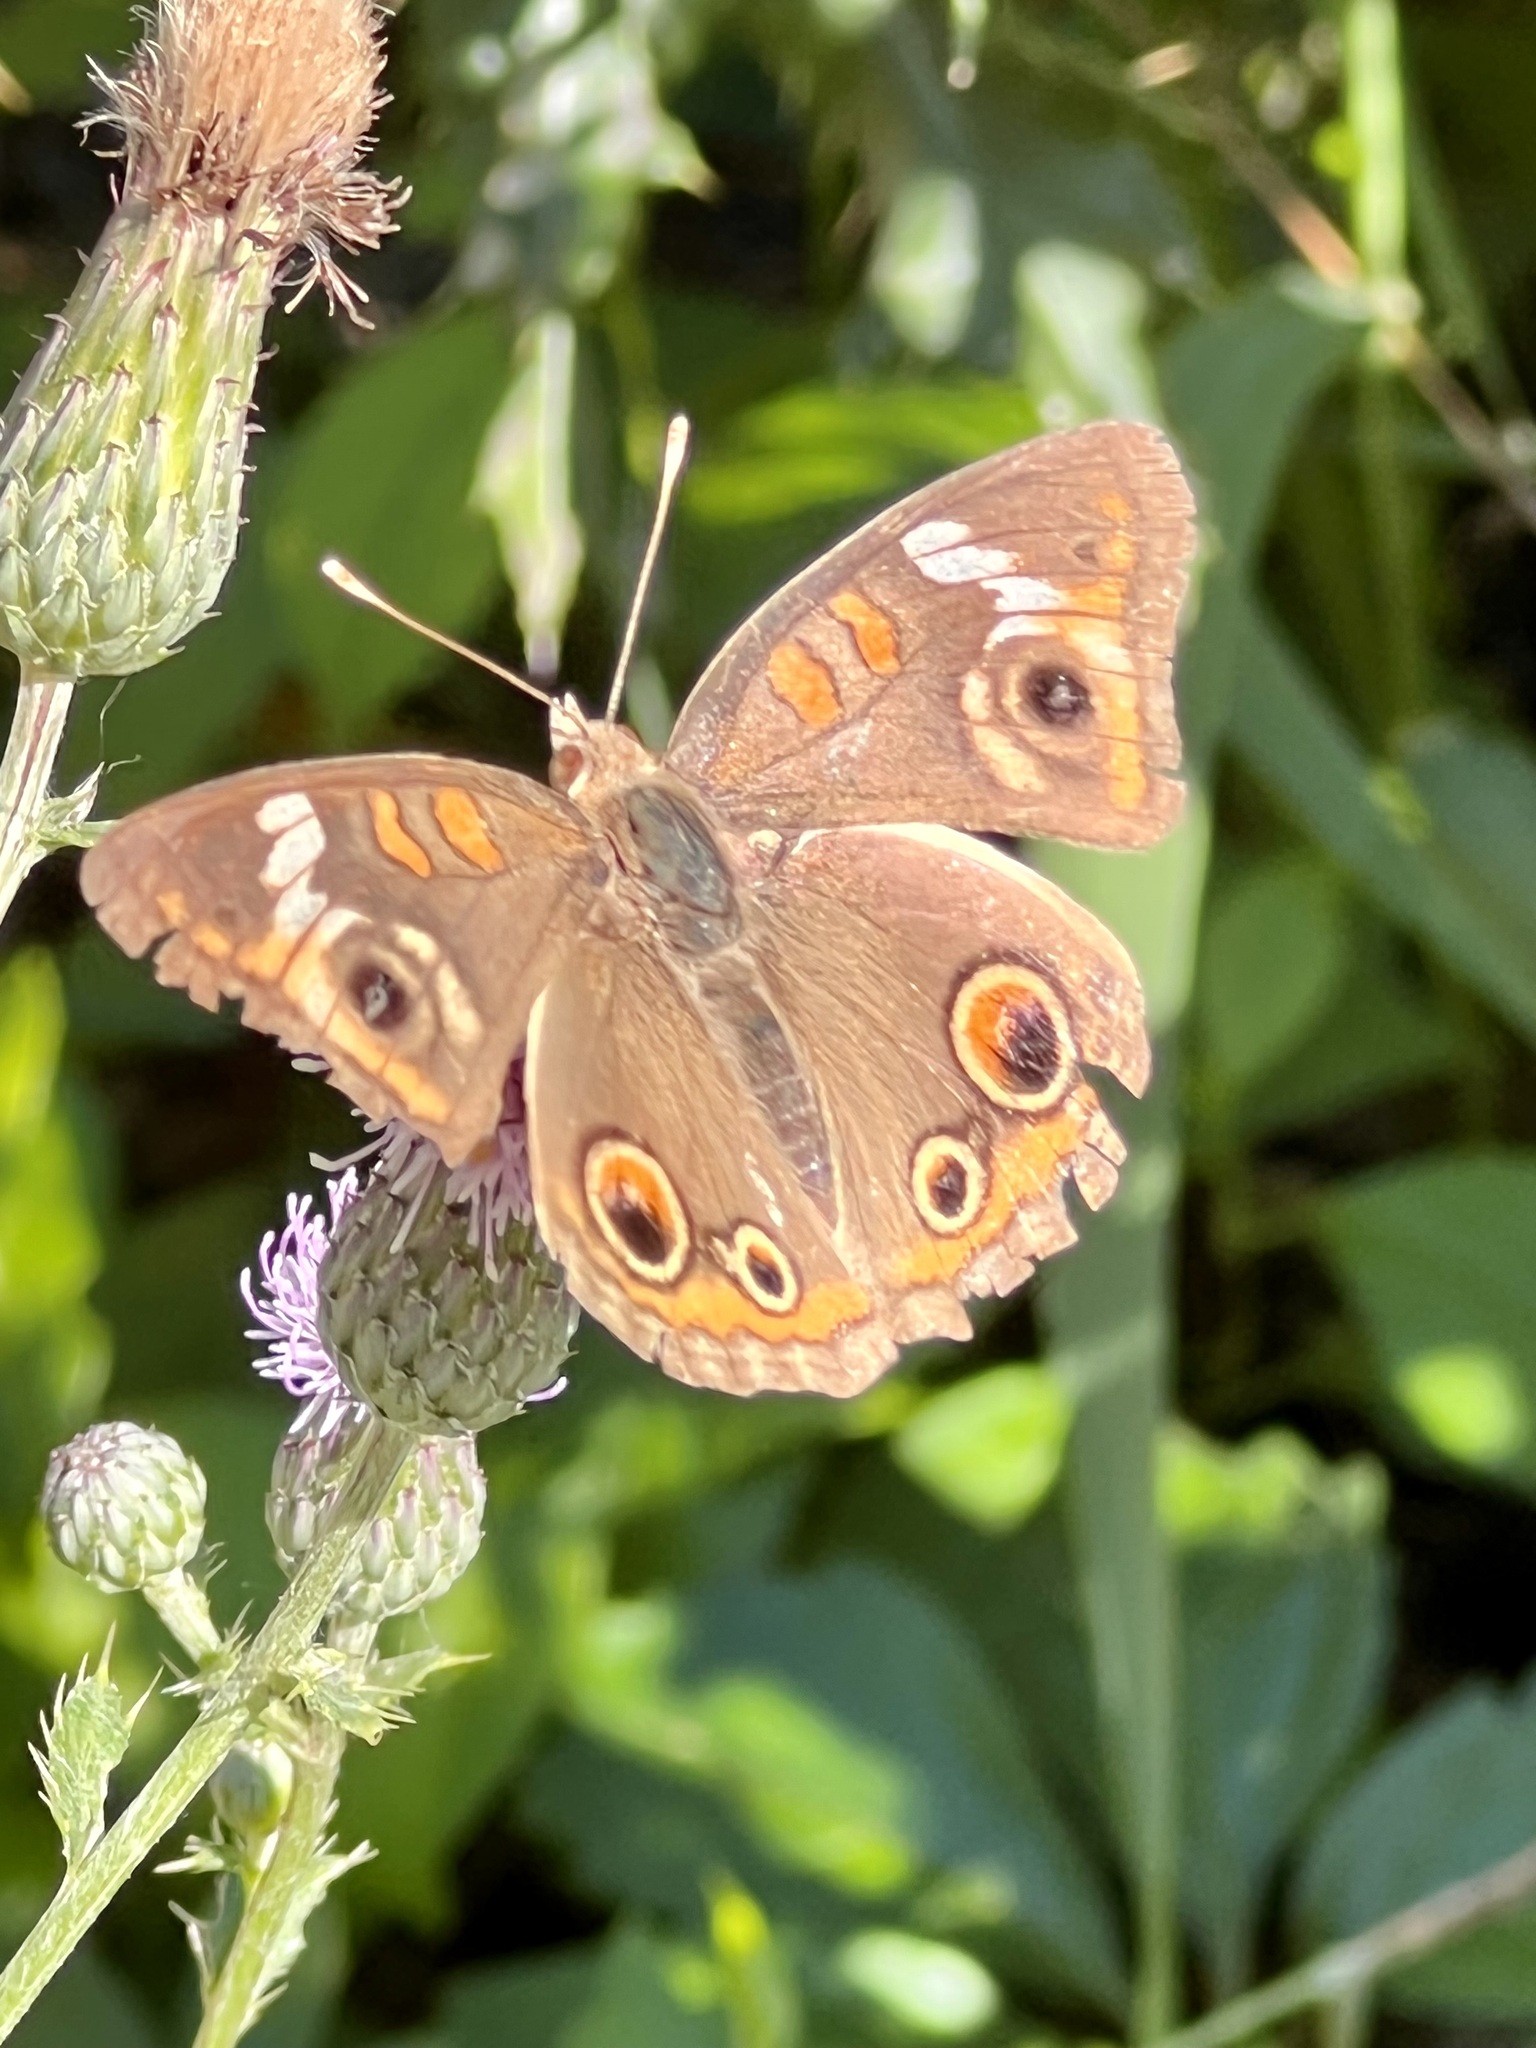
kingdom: Animalia
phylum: Arthropoda
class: Insecta
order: Lepidoptera
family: Nymphalidae
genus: Junonia
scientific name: Junonia coenia
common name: Common buckeye
